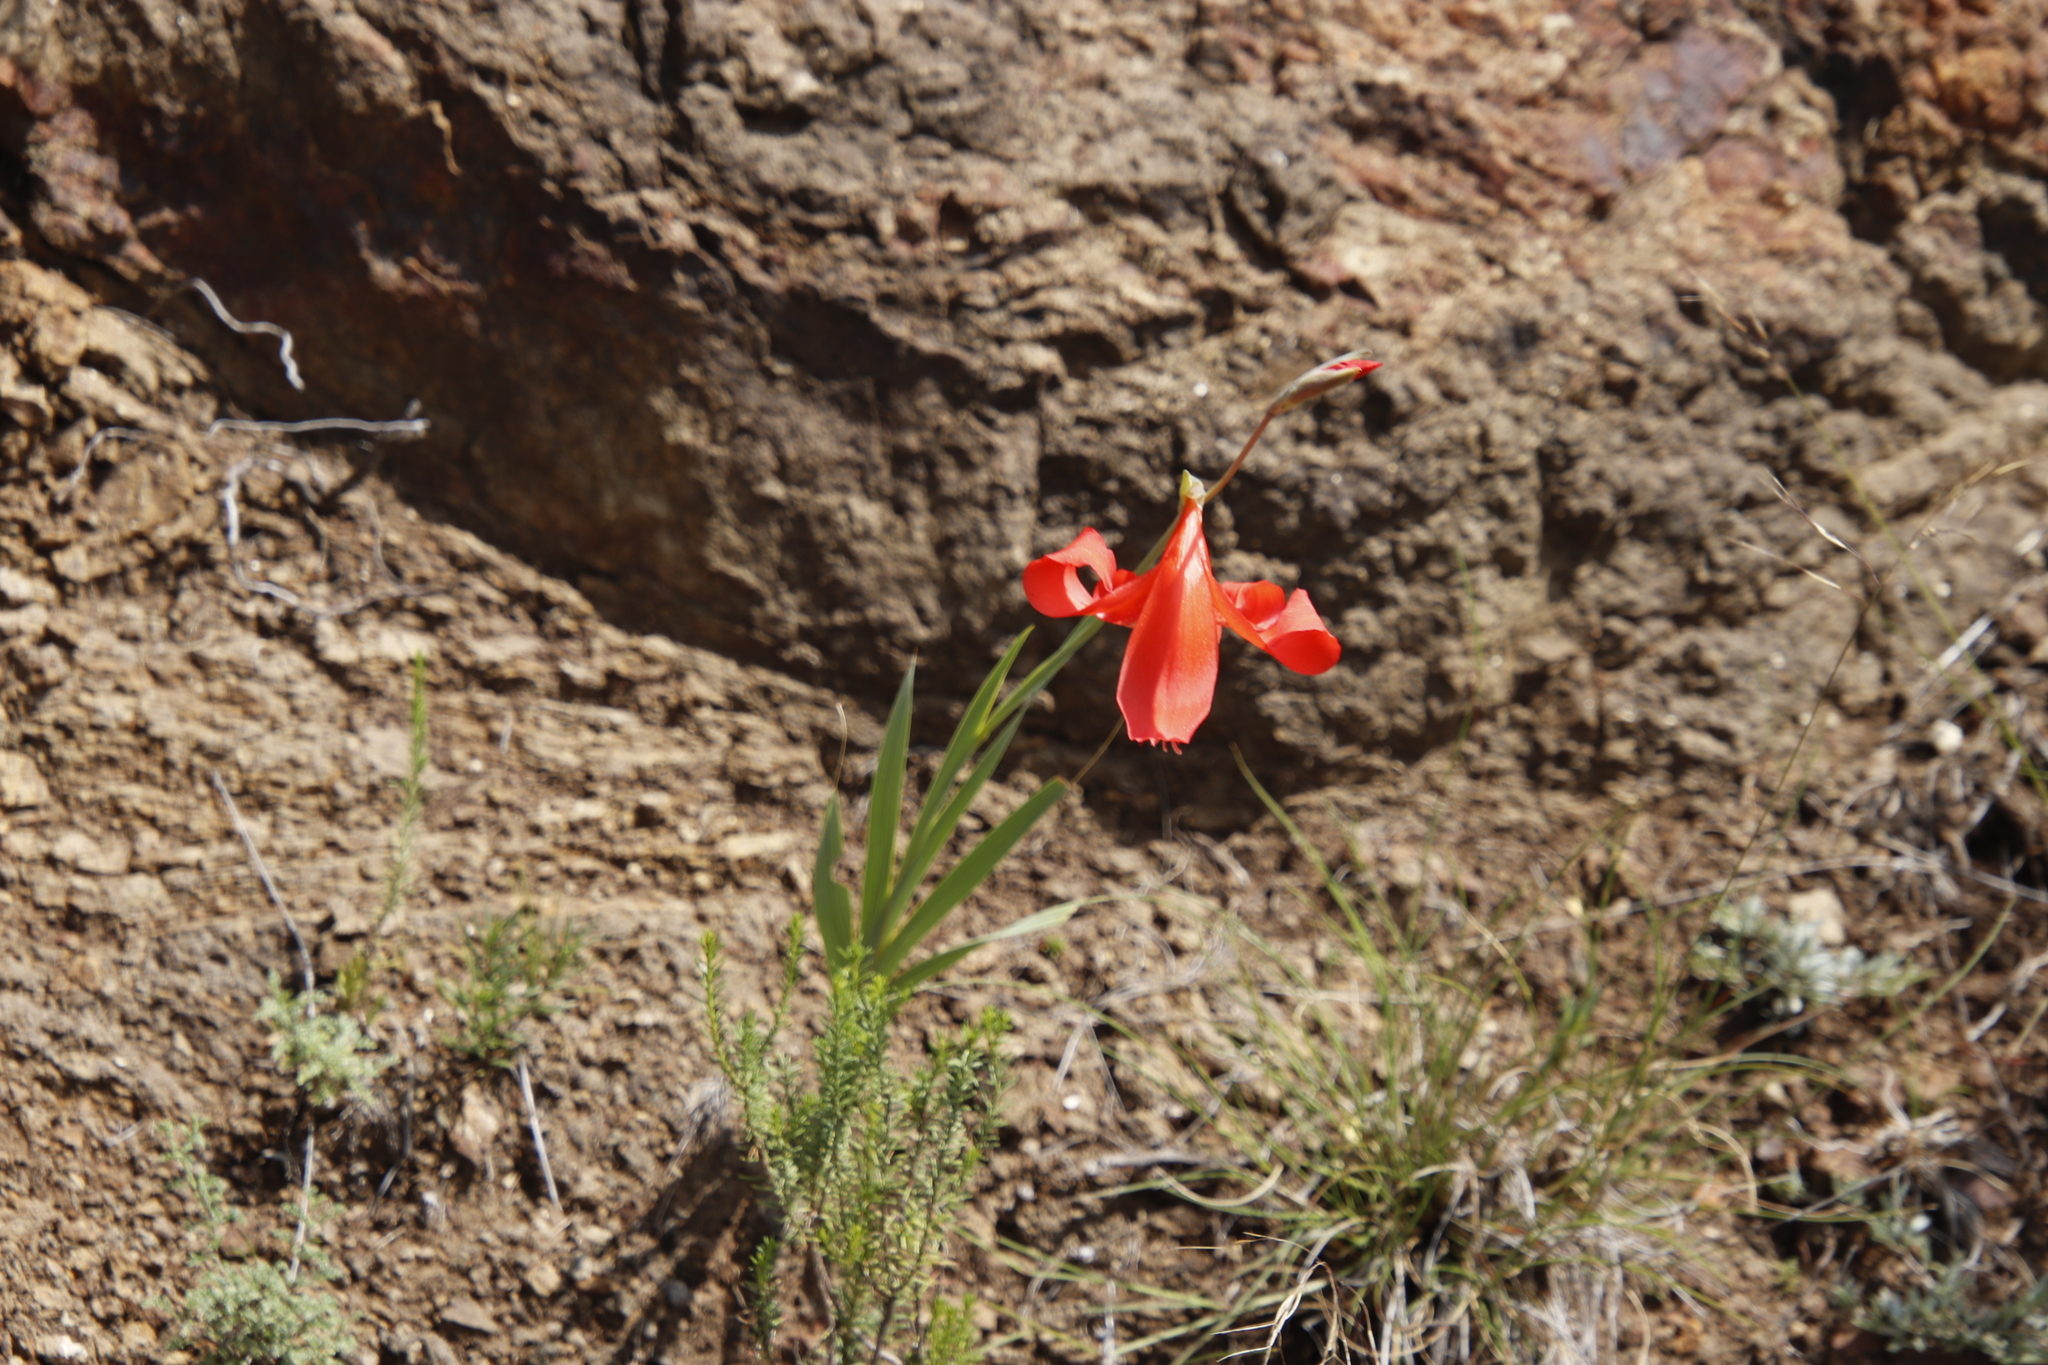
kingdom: Plantae
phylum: Tracheophyta
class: Liliopsida
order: Asparagales
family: Iridaceae
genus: Gladiolus
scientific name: Gladiolus saundersii
